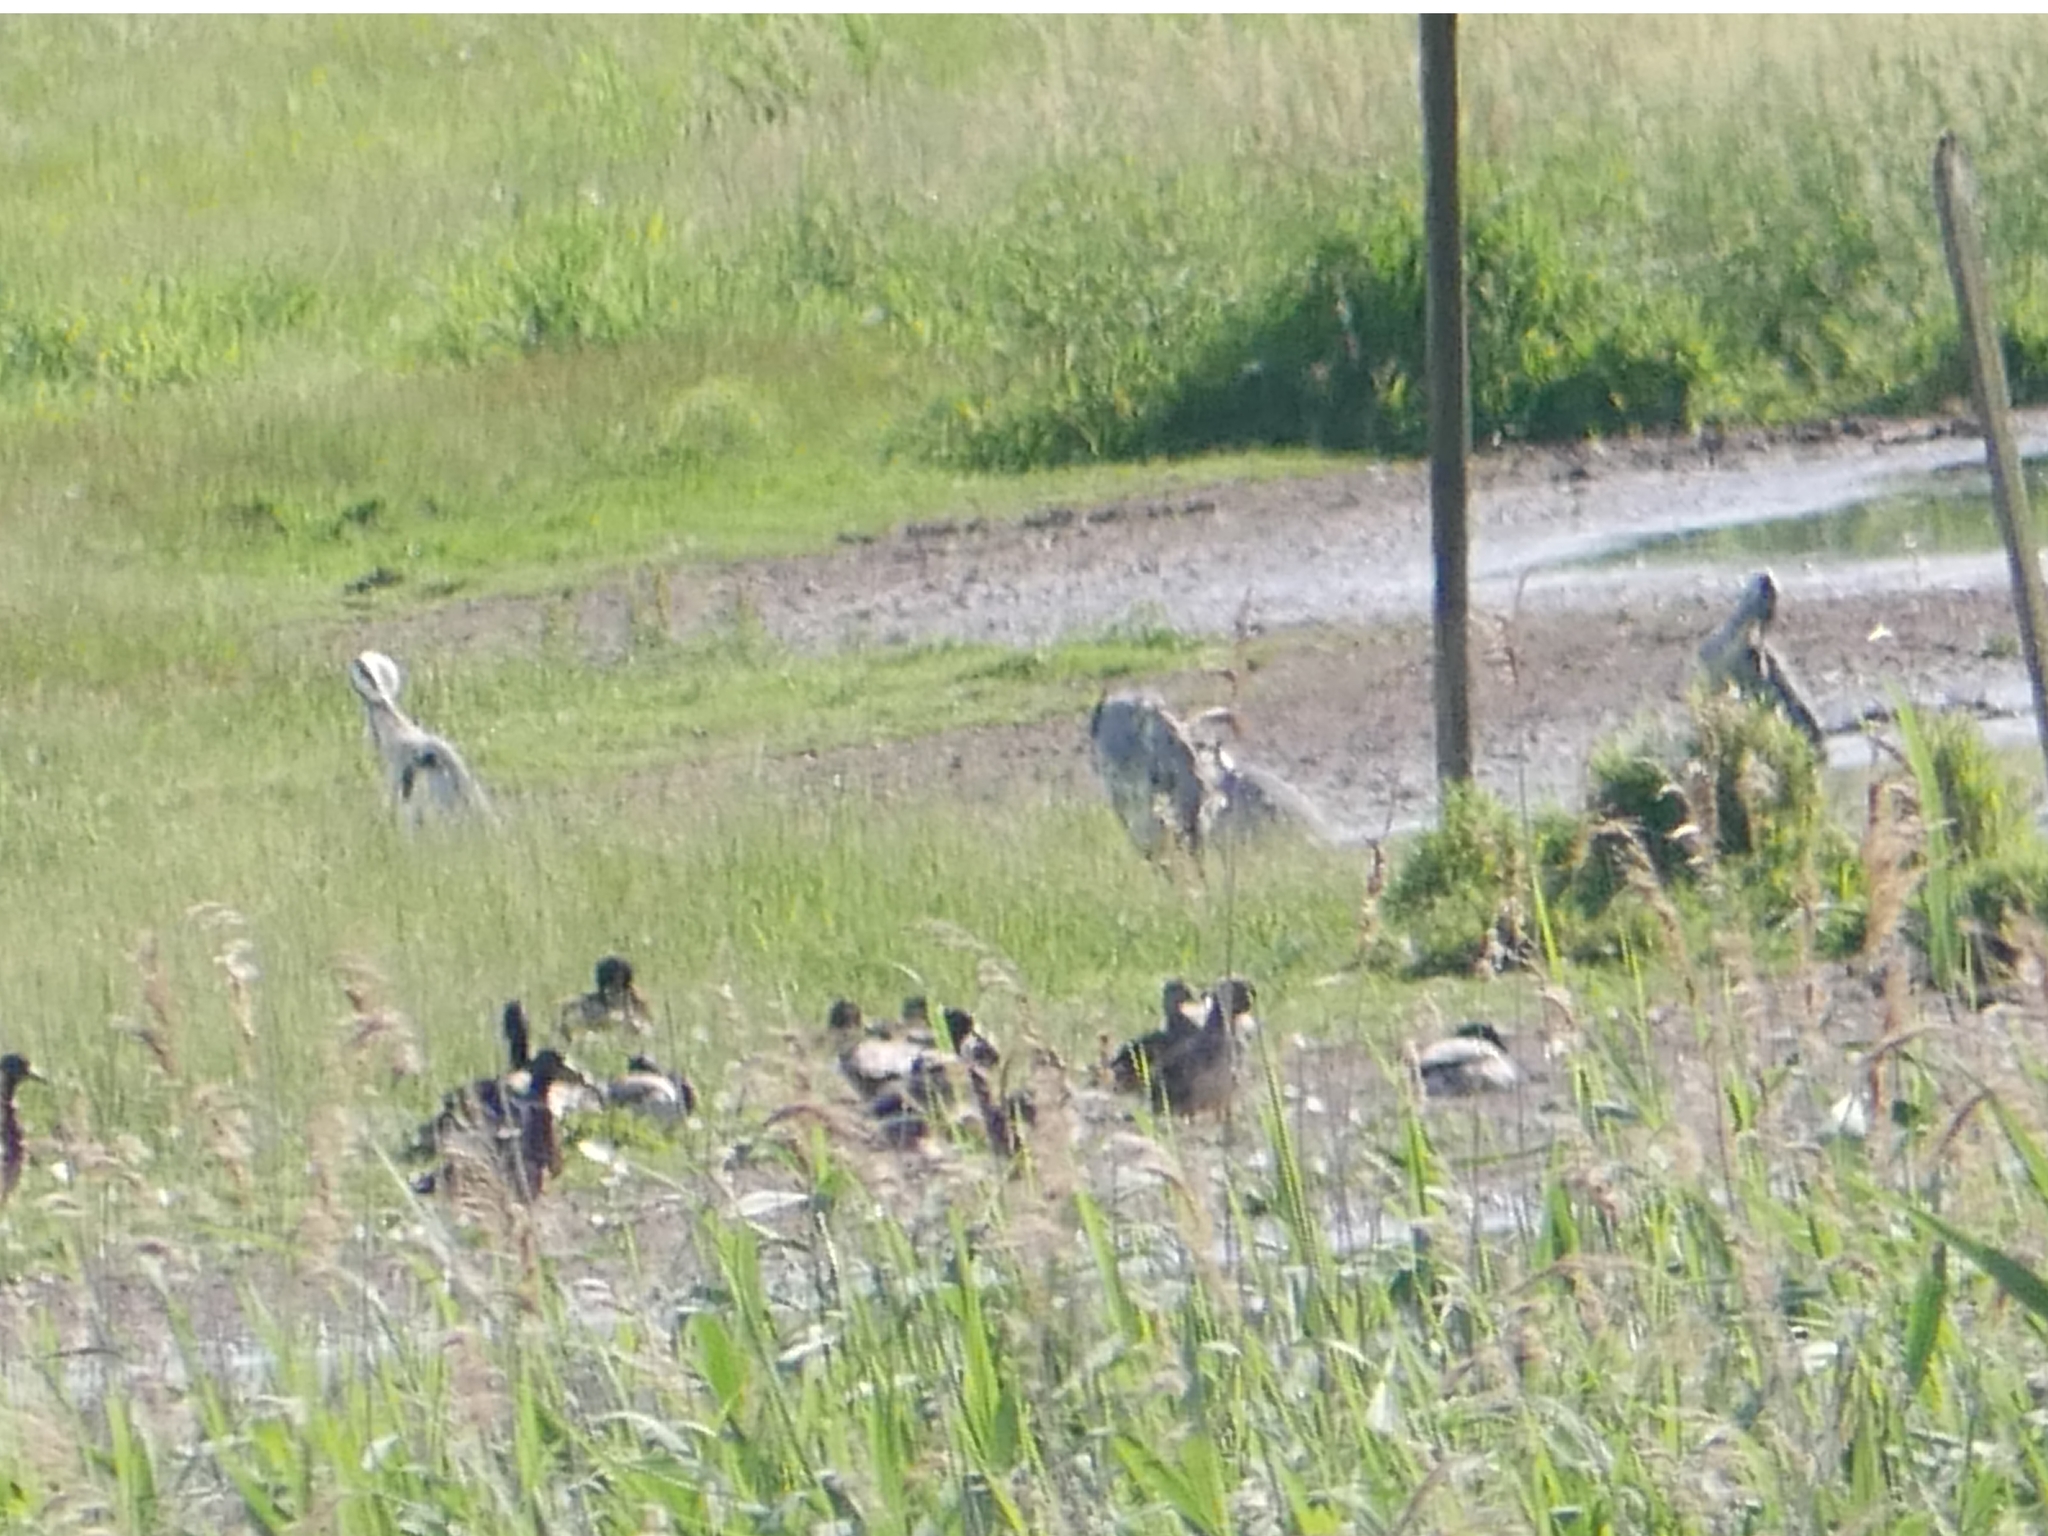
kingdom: Animalia
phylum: Chordata
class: Aves
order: Pelecaniformes
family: Ardeidae
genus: Ardea
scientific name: Ardea cinerea
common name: Grey heron
